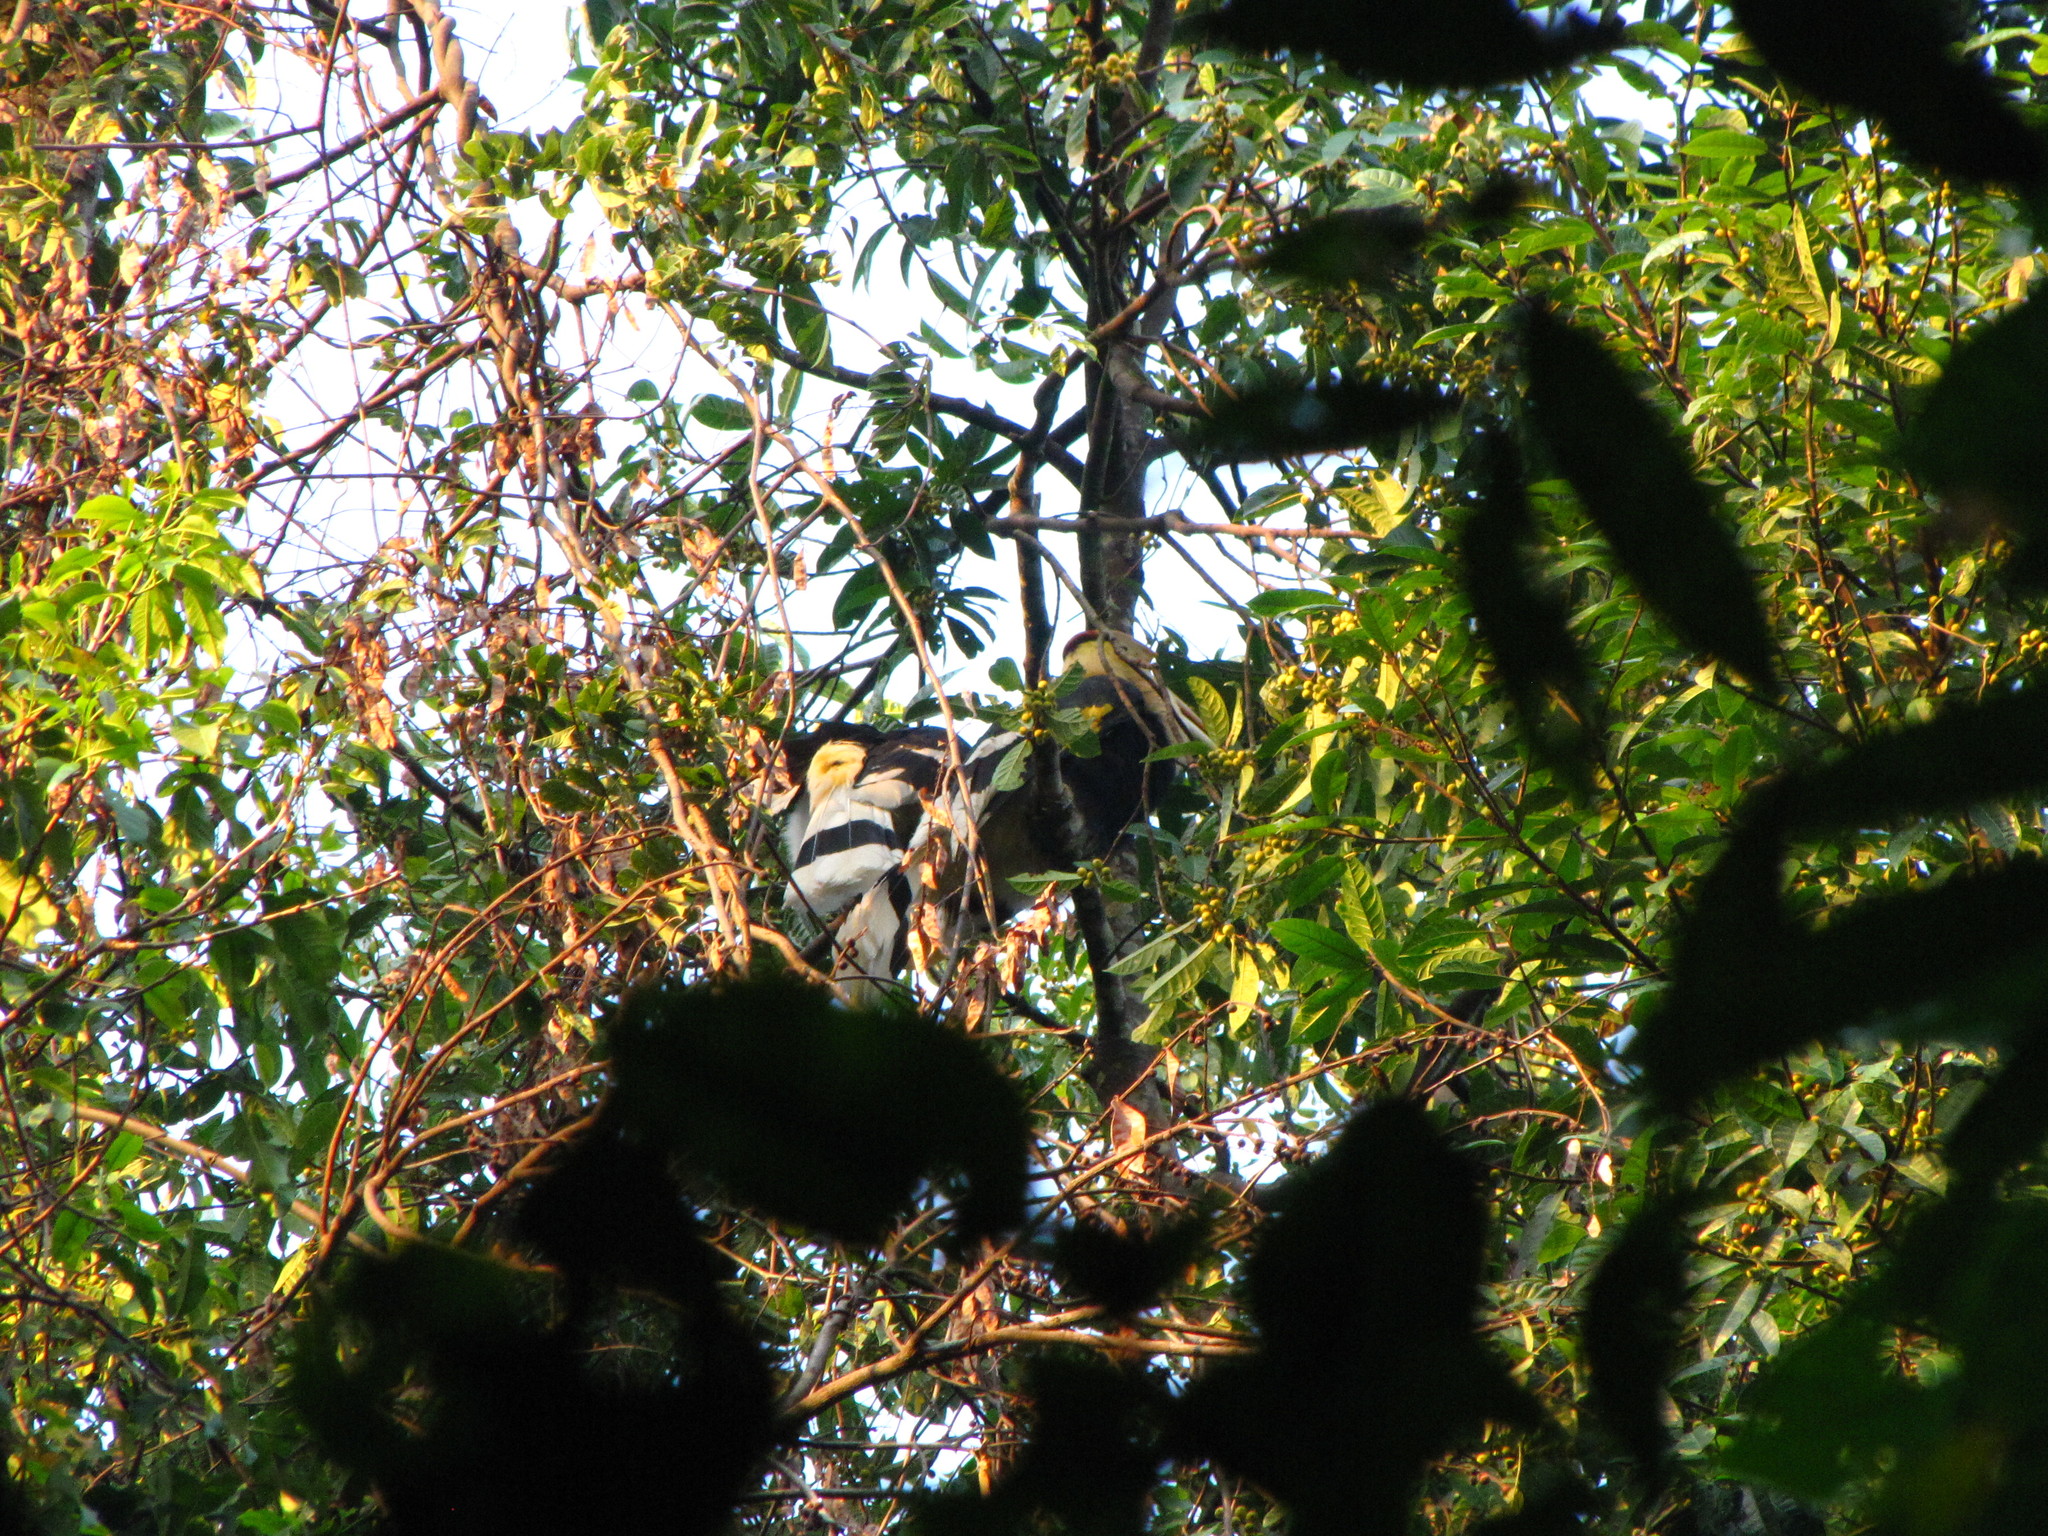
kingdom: Animalia
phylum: Chordata
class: Aves
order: Bucerotiformes
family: Bucerotidae
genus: Buceros
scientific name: Buceros bicornis
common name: Great hornbill
